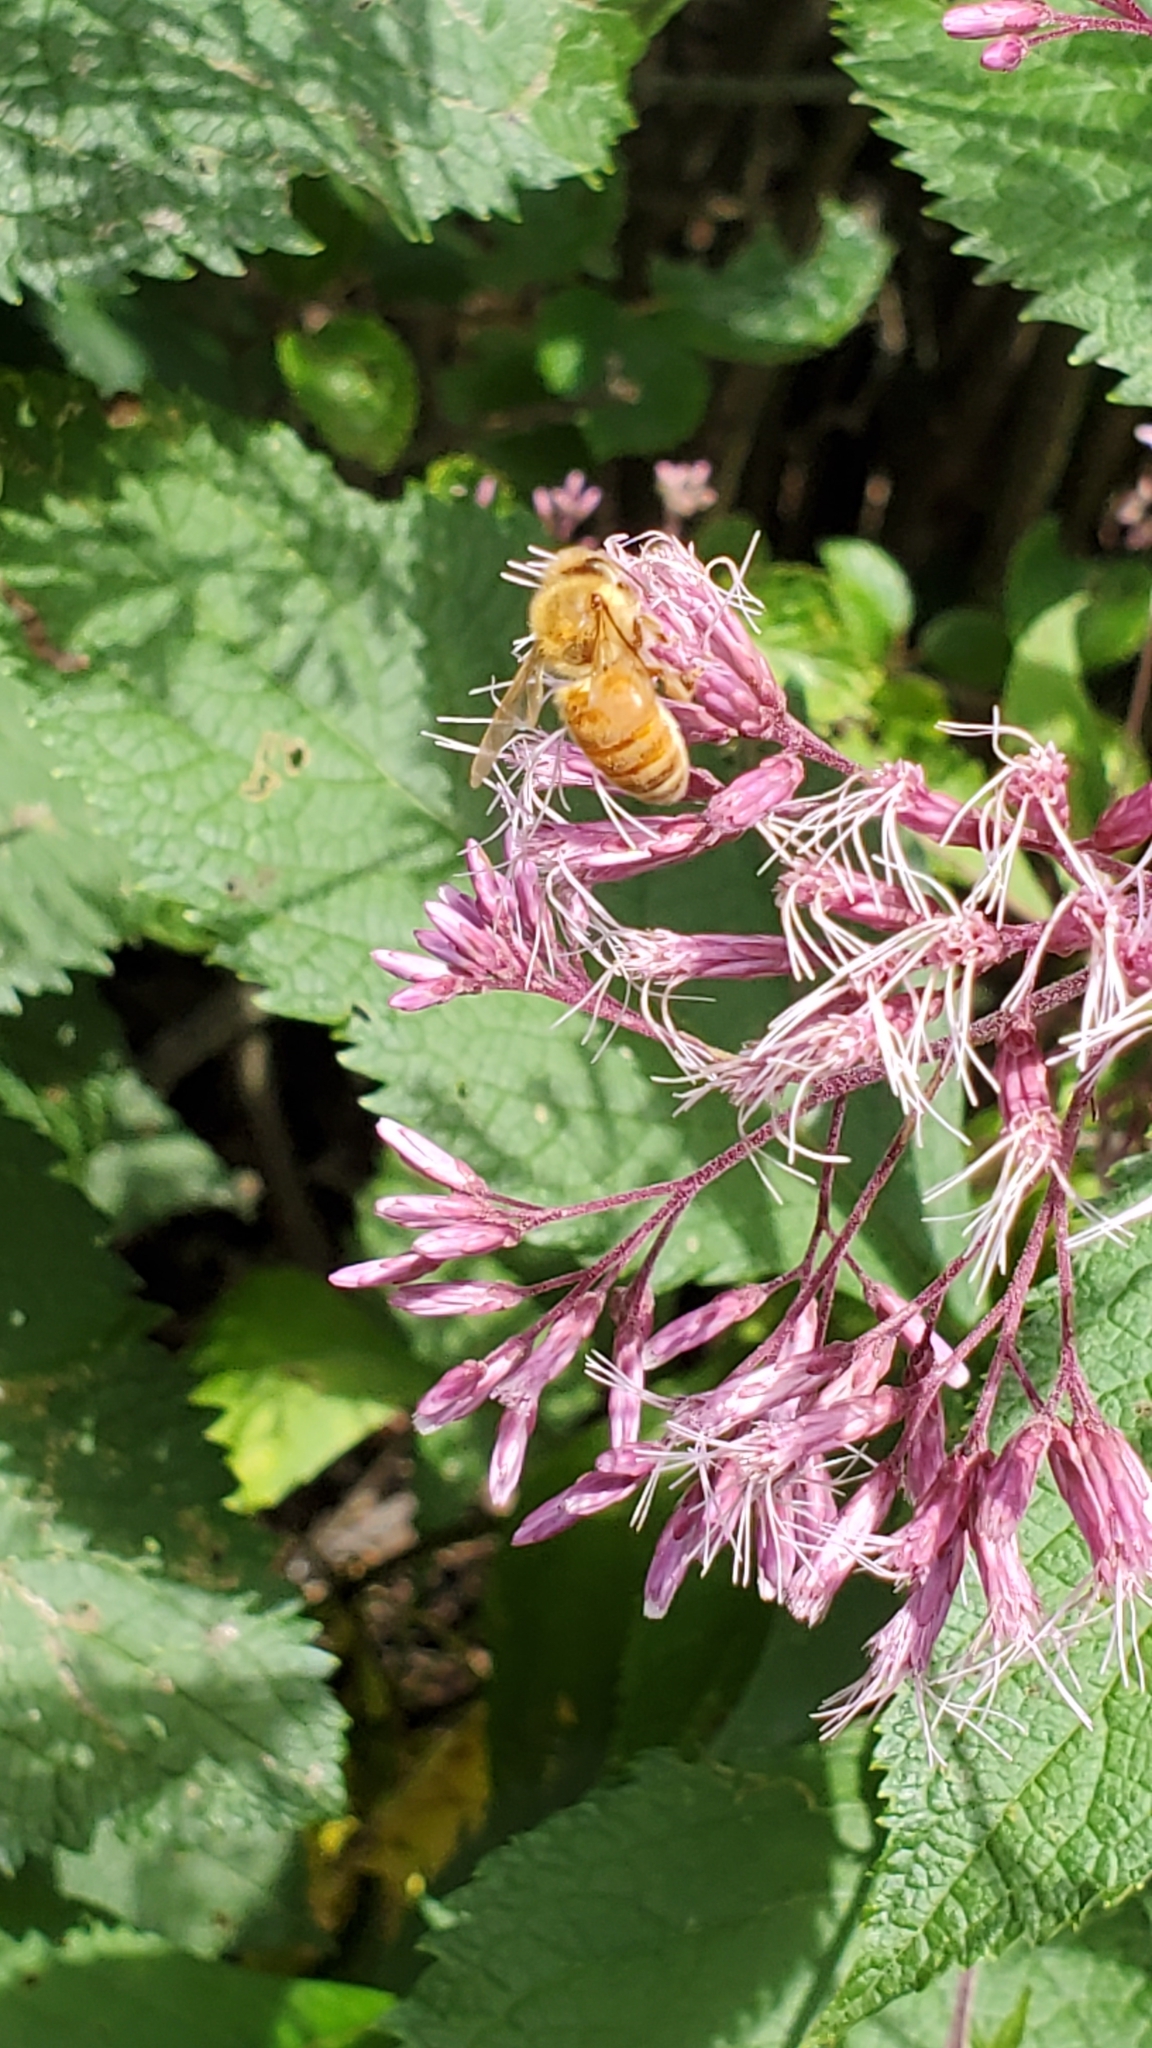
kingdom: Animalia
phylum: Arthropoda
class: Insecta
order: Hymenoptera
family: Apidae
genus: Apis
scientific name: Apis mellifera
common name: Honey bee
